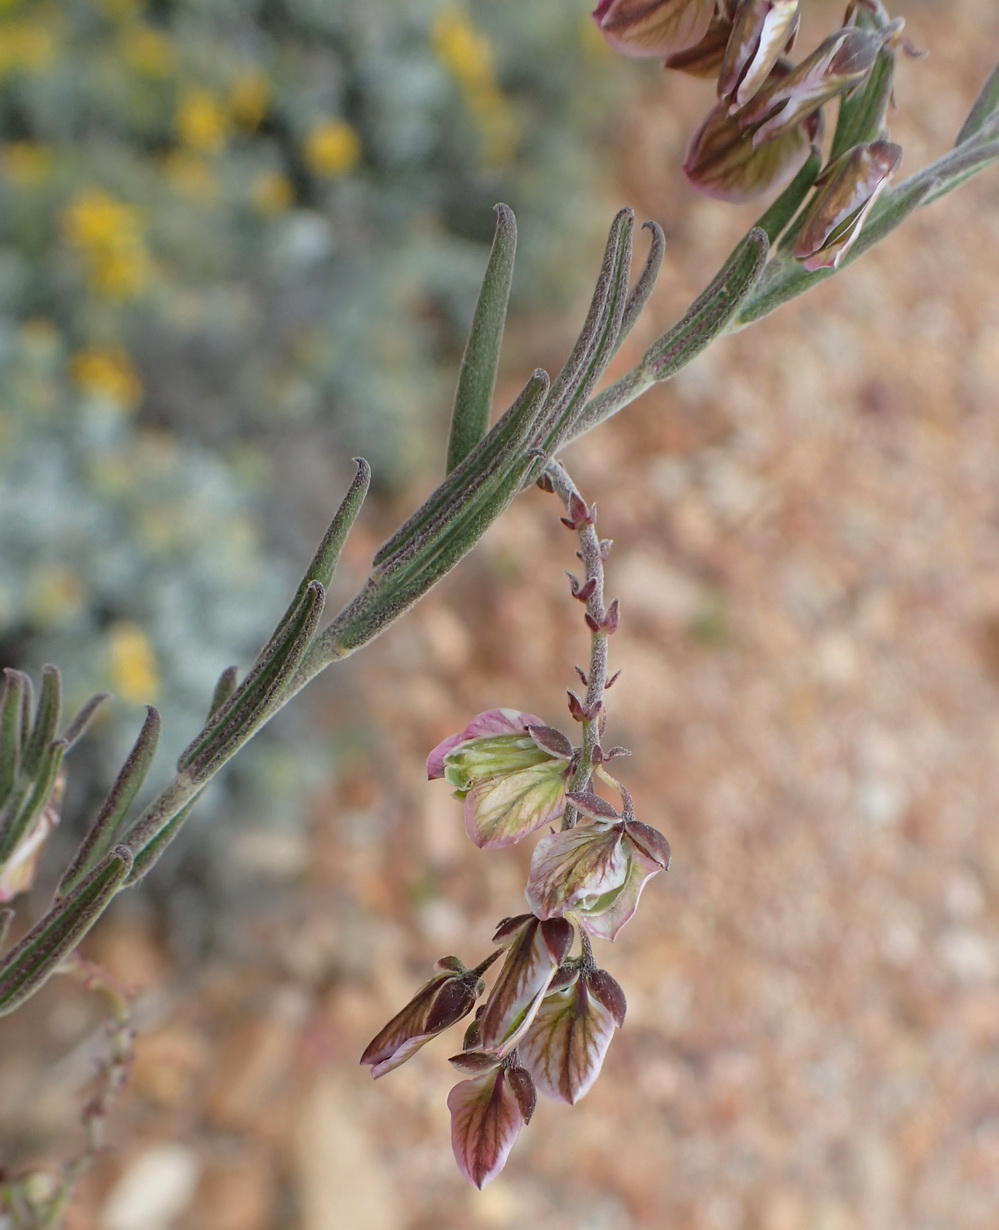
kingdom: Plantae
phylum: Tracheophyta
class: Magnoliopsida
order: Fabales
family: Polygalaceae
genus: Polygala
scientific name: Polygala scabra
